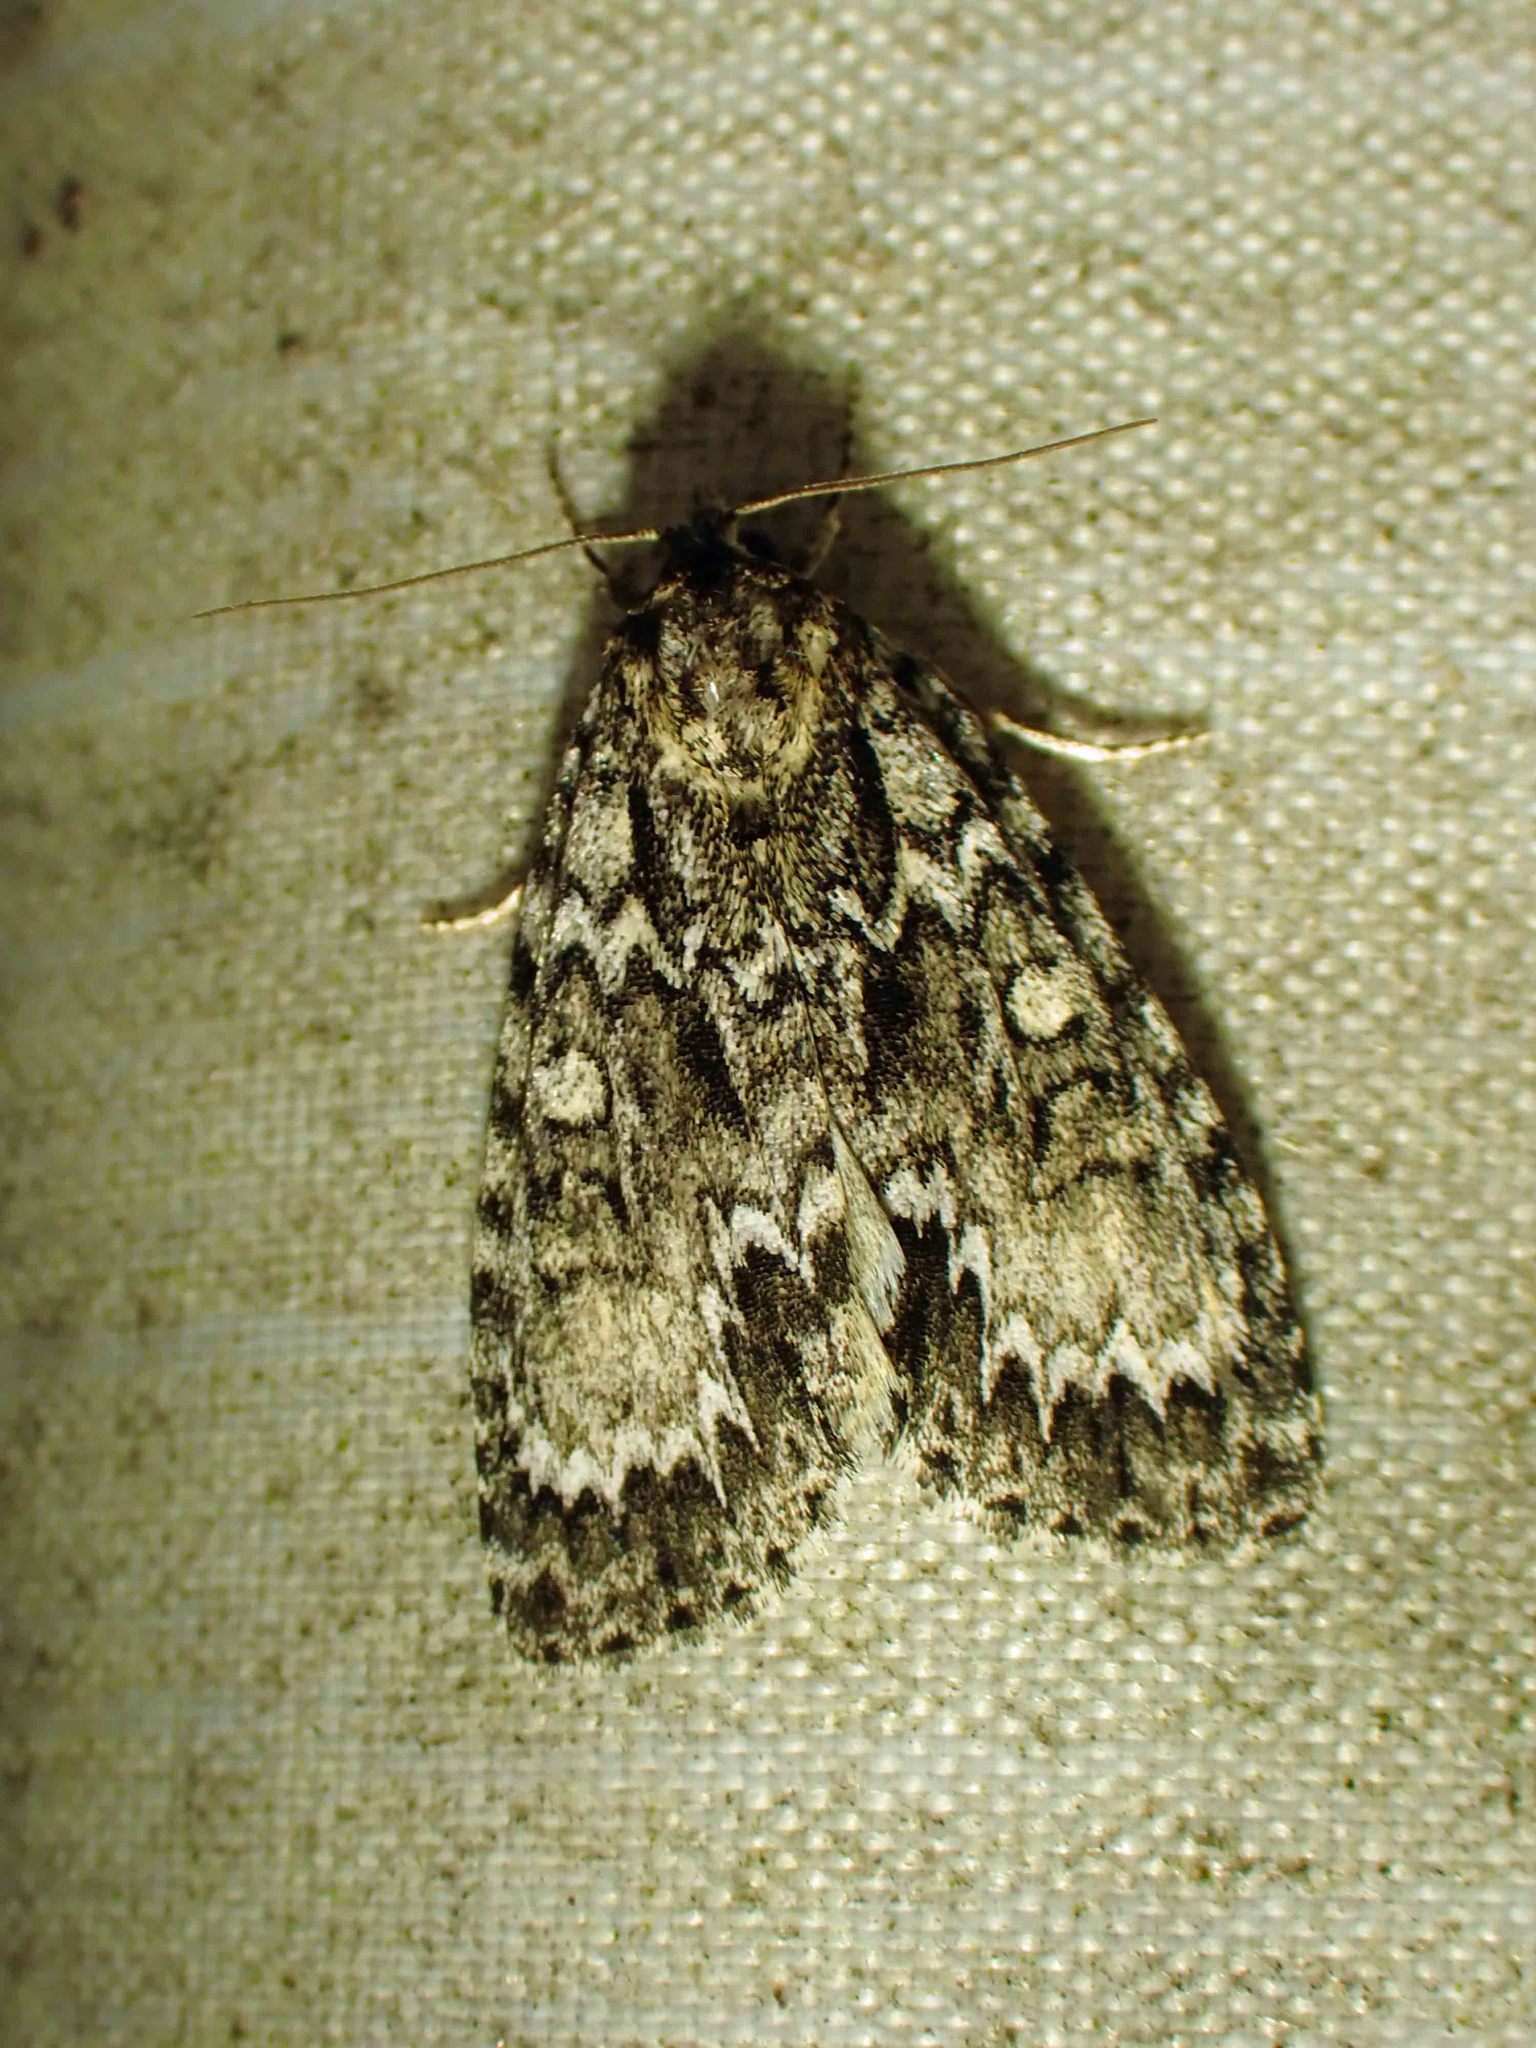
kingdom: Animalia
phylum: Arthropoda
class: Insecta
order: Lepidoptera
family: Noctuidae
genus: Acronicta
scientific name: Acronicta fragilis
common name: Fragile dagger
